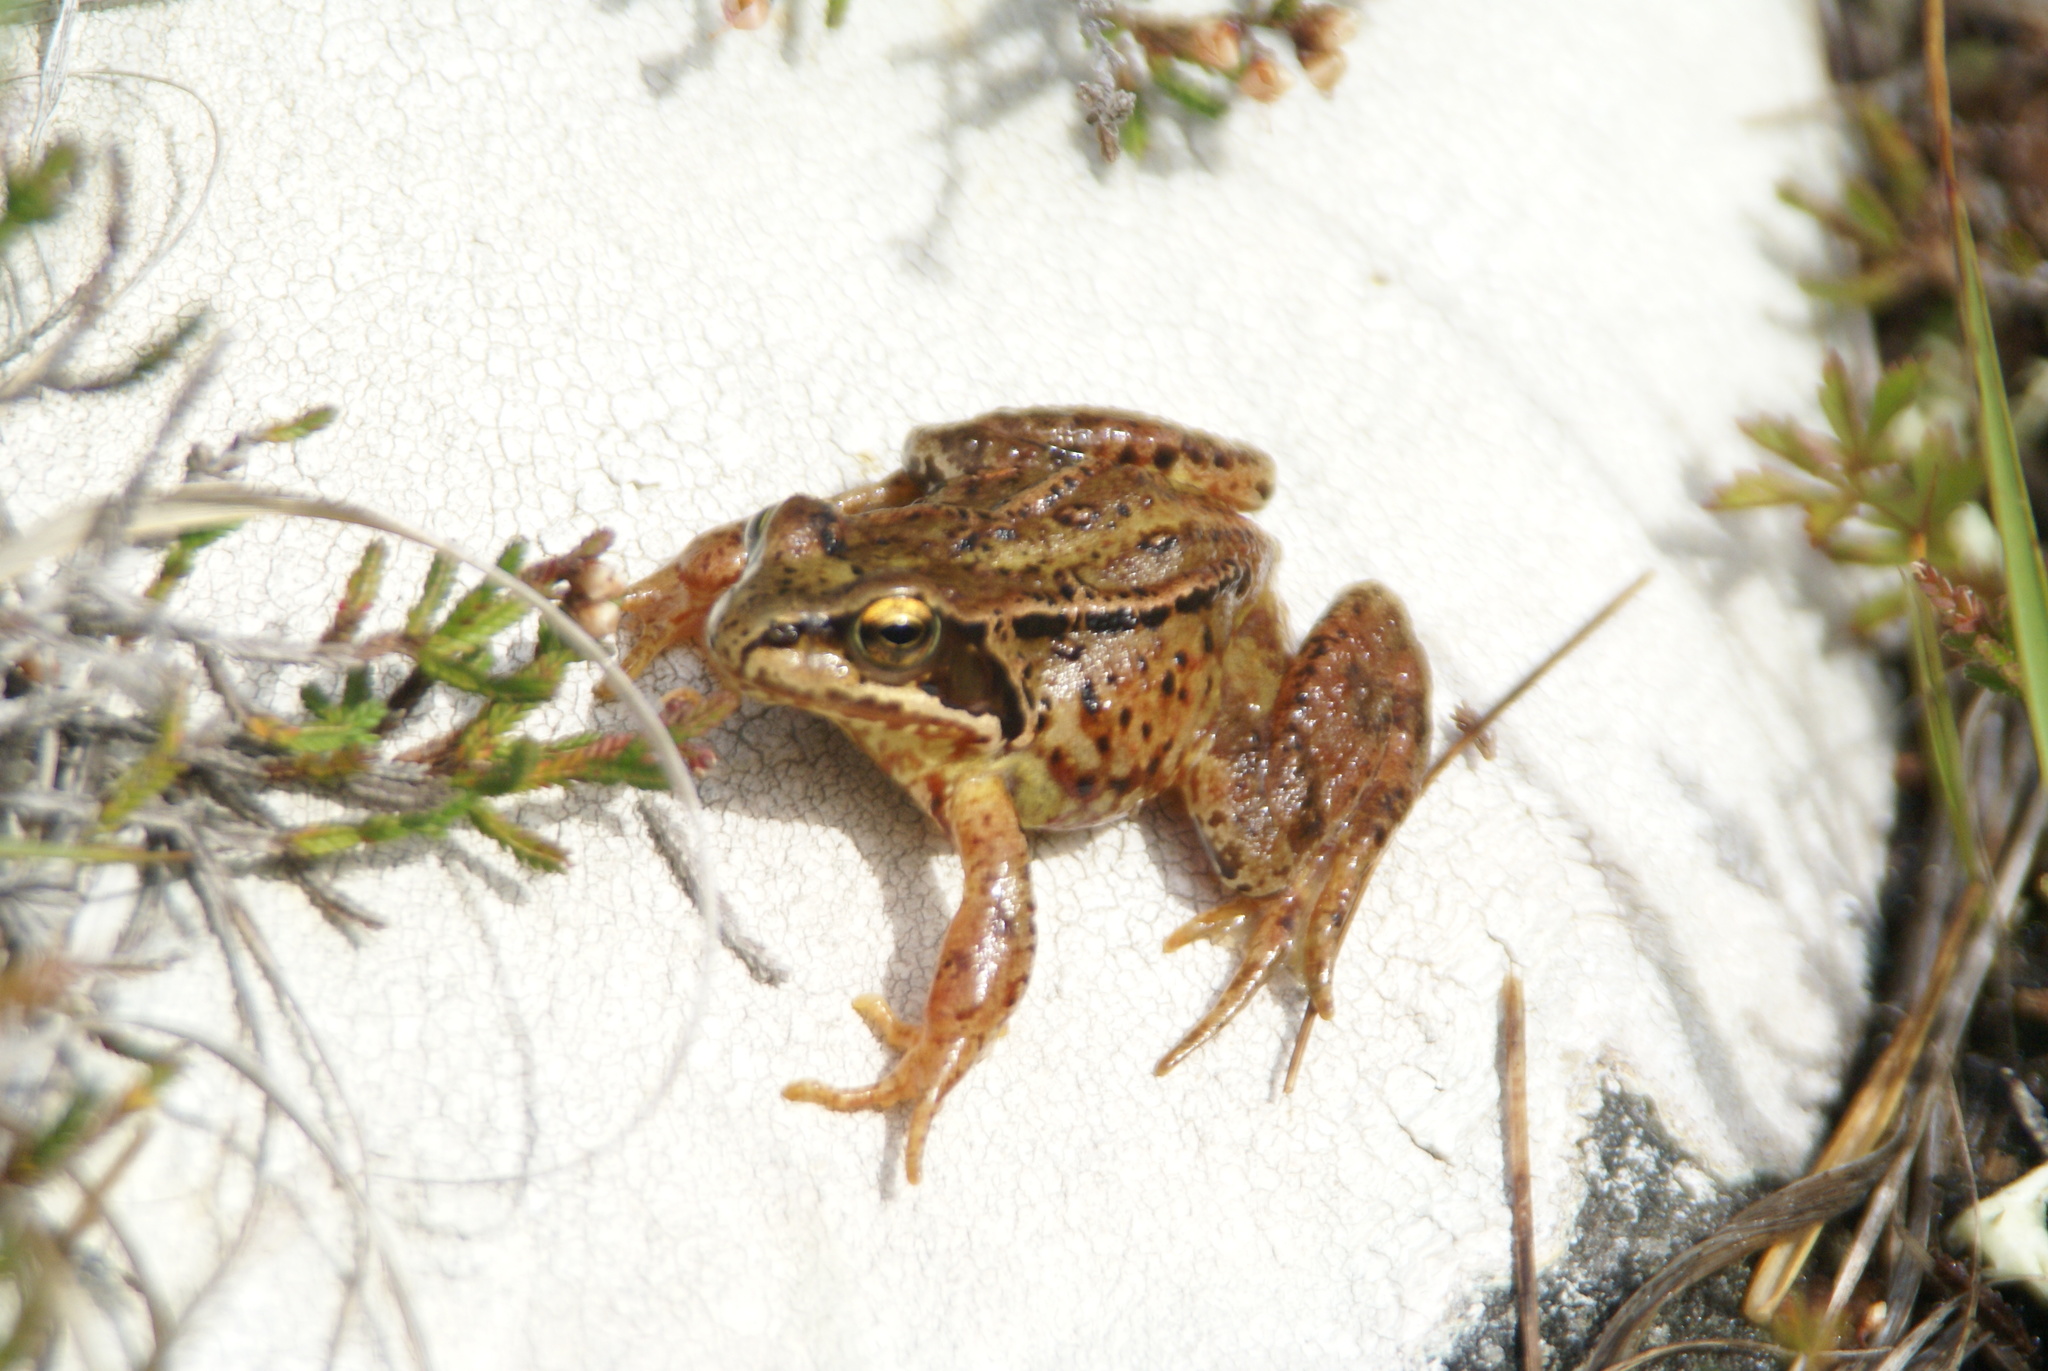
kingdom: Animalia
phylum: Chordata
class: Amphibia
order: Anura
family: Ranidae
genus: Rana
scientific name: Rana temporaria
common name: Common frog
